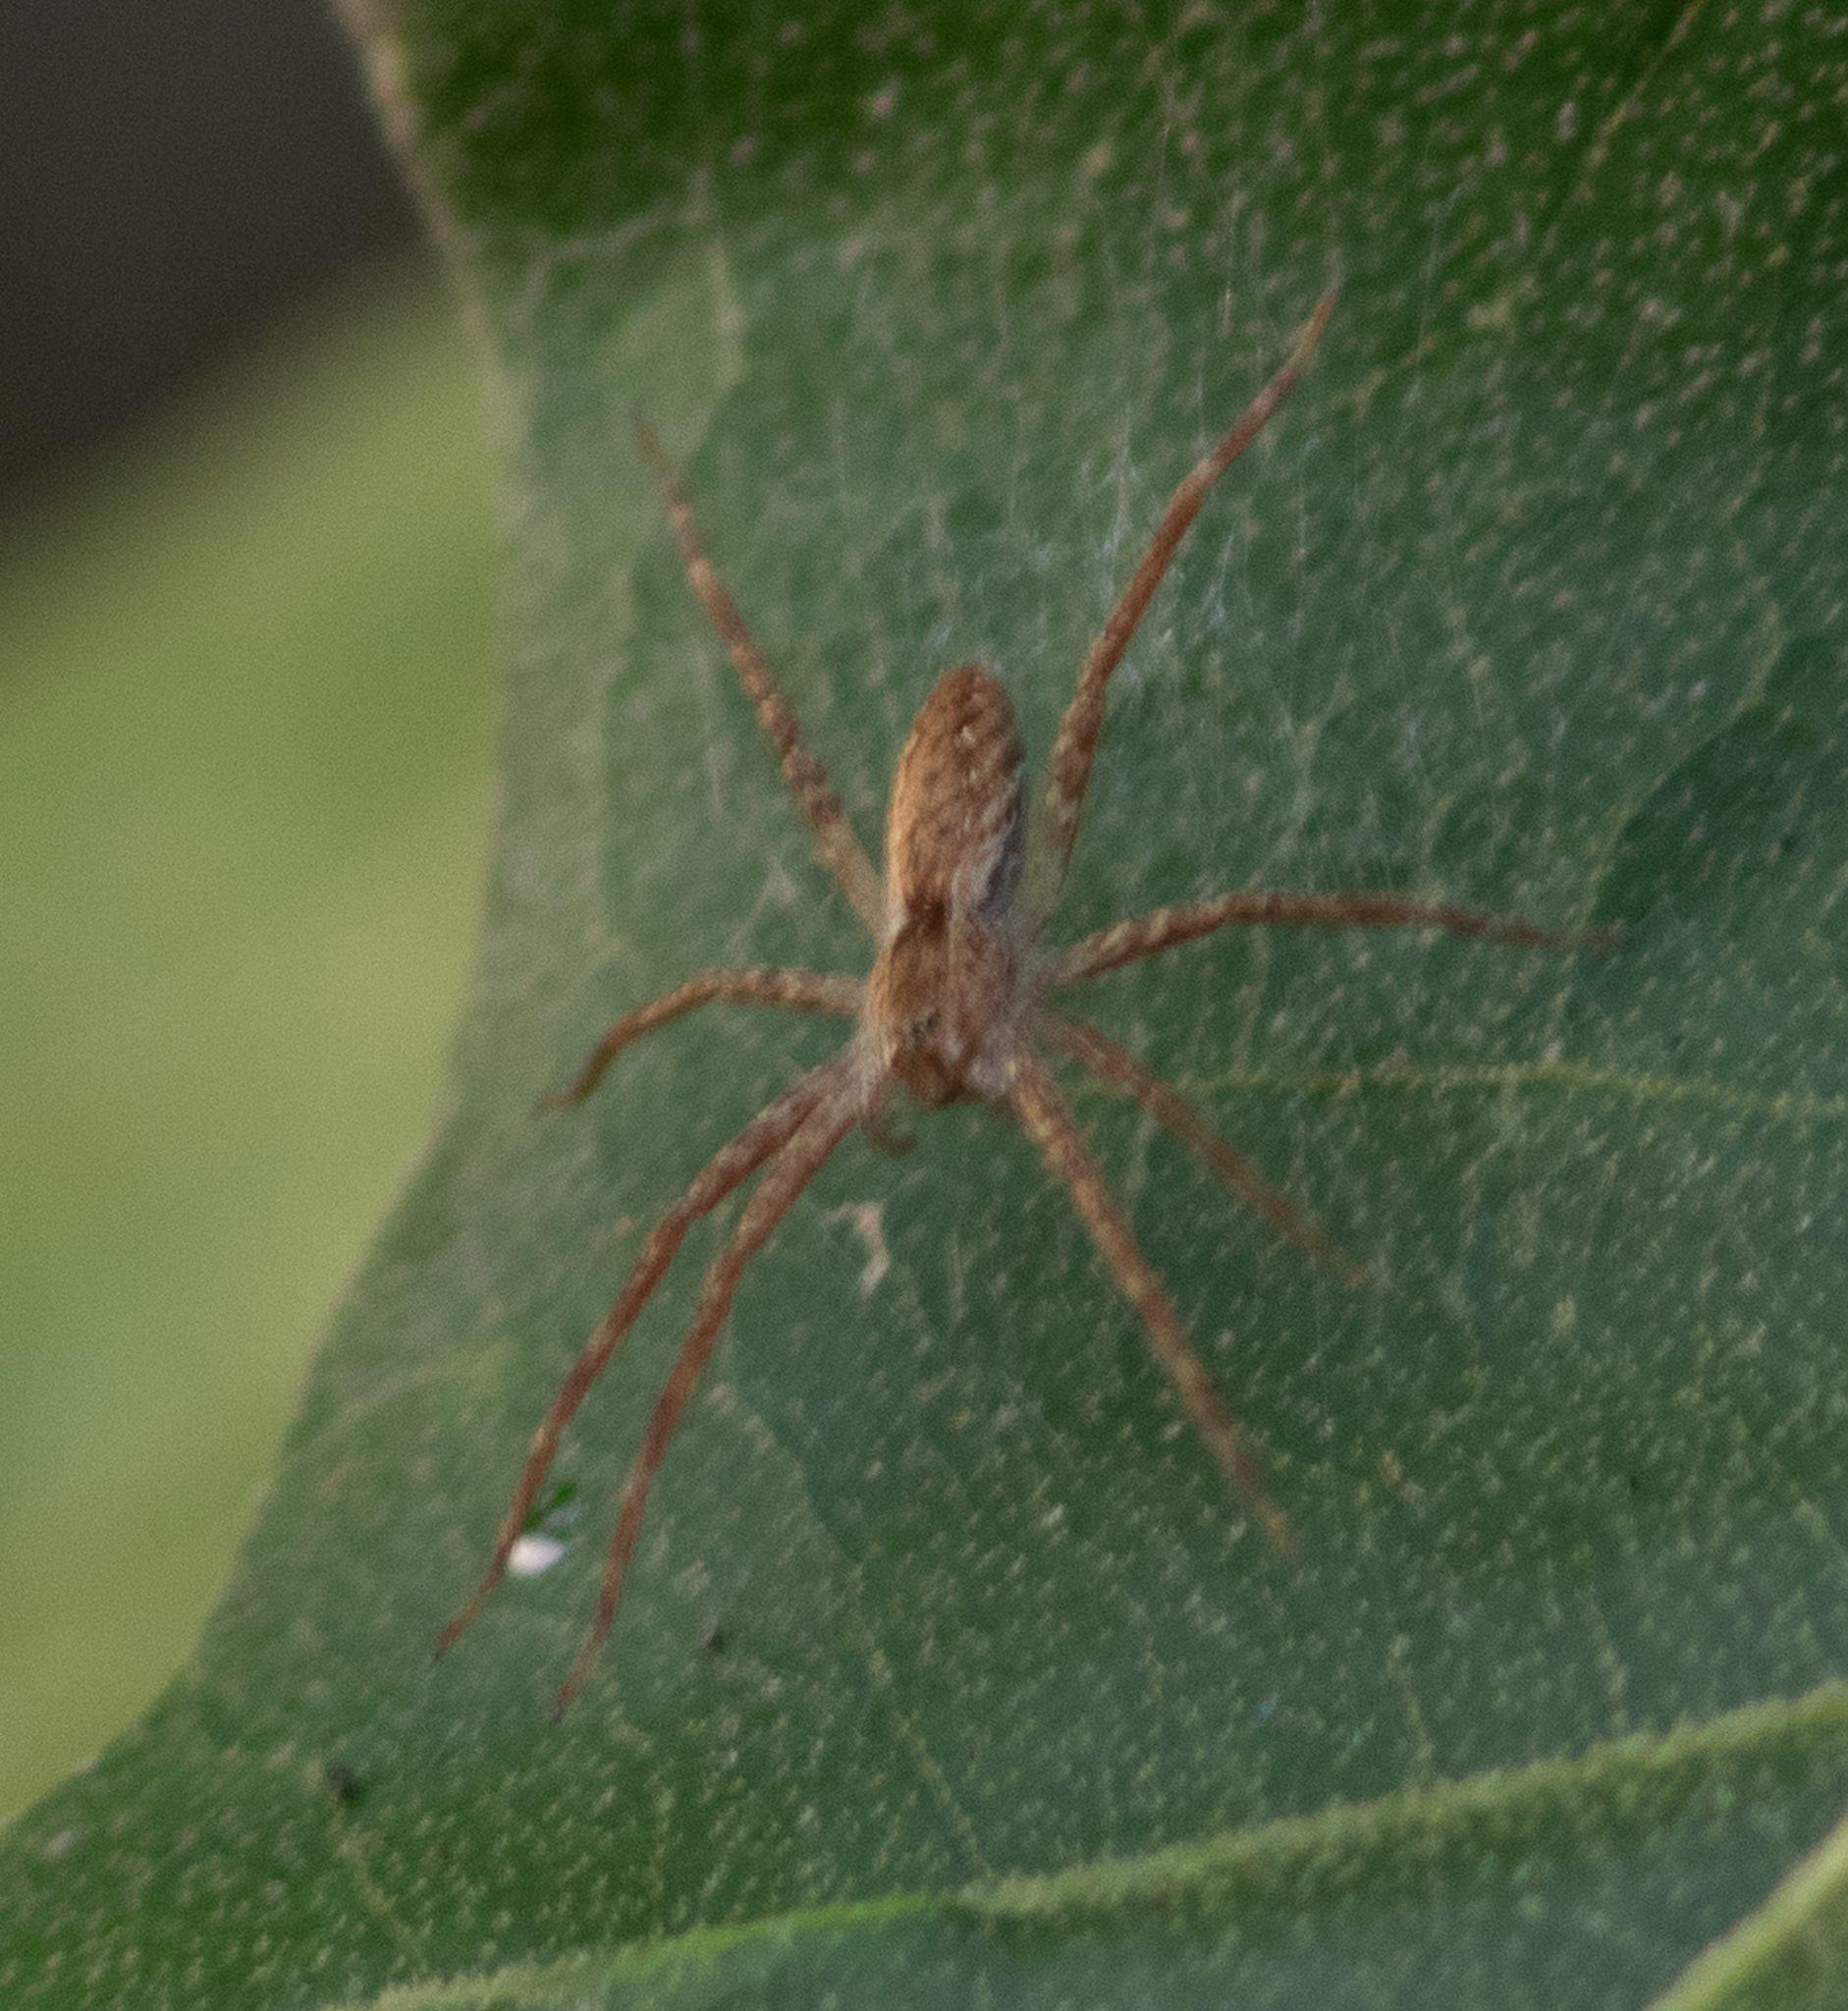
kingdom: Animalia
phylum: Arthropoda
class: Arachnida
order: Araneae
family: Pisauridae
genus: Pisaurina
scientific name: Pisaurina mira
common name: American nursery web spider
